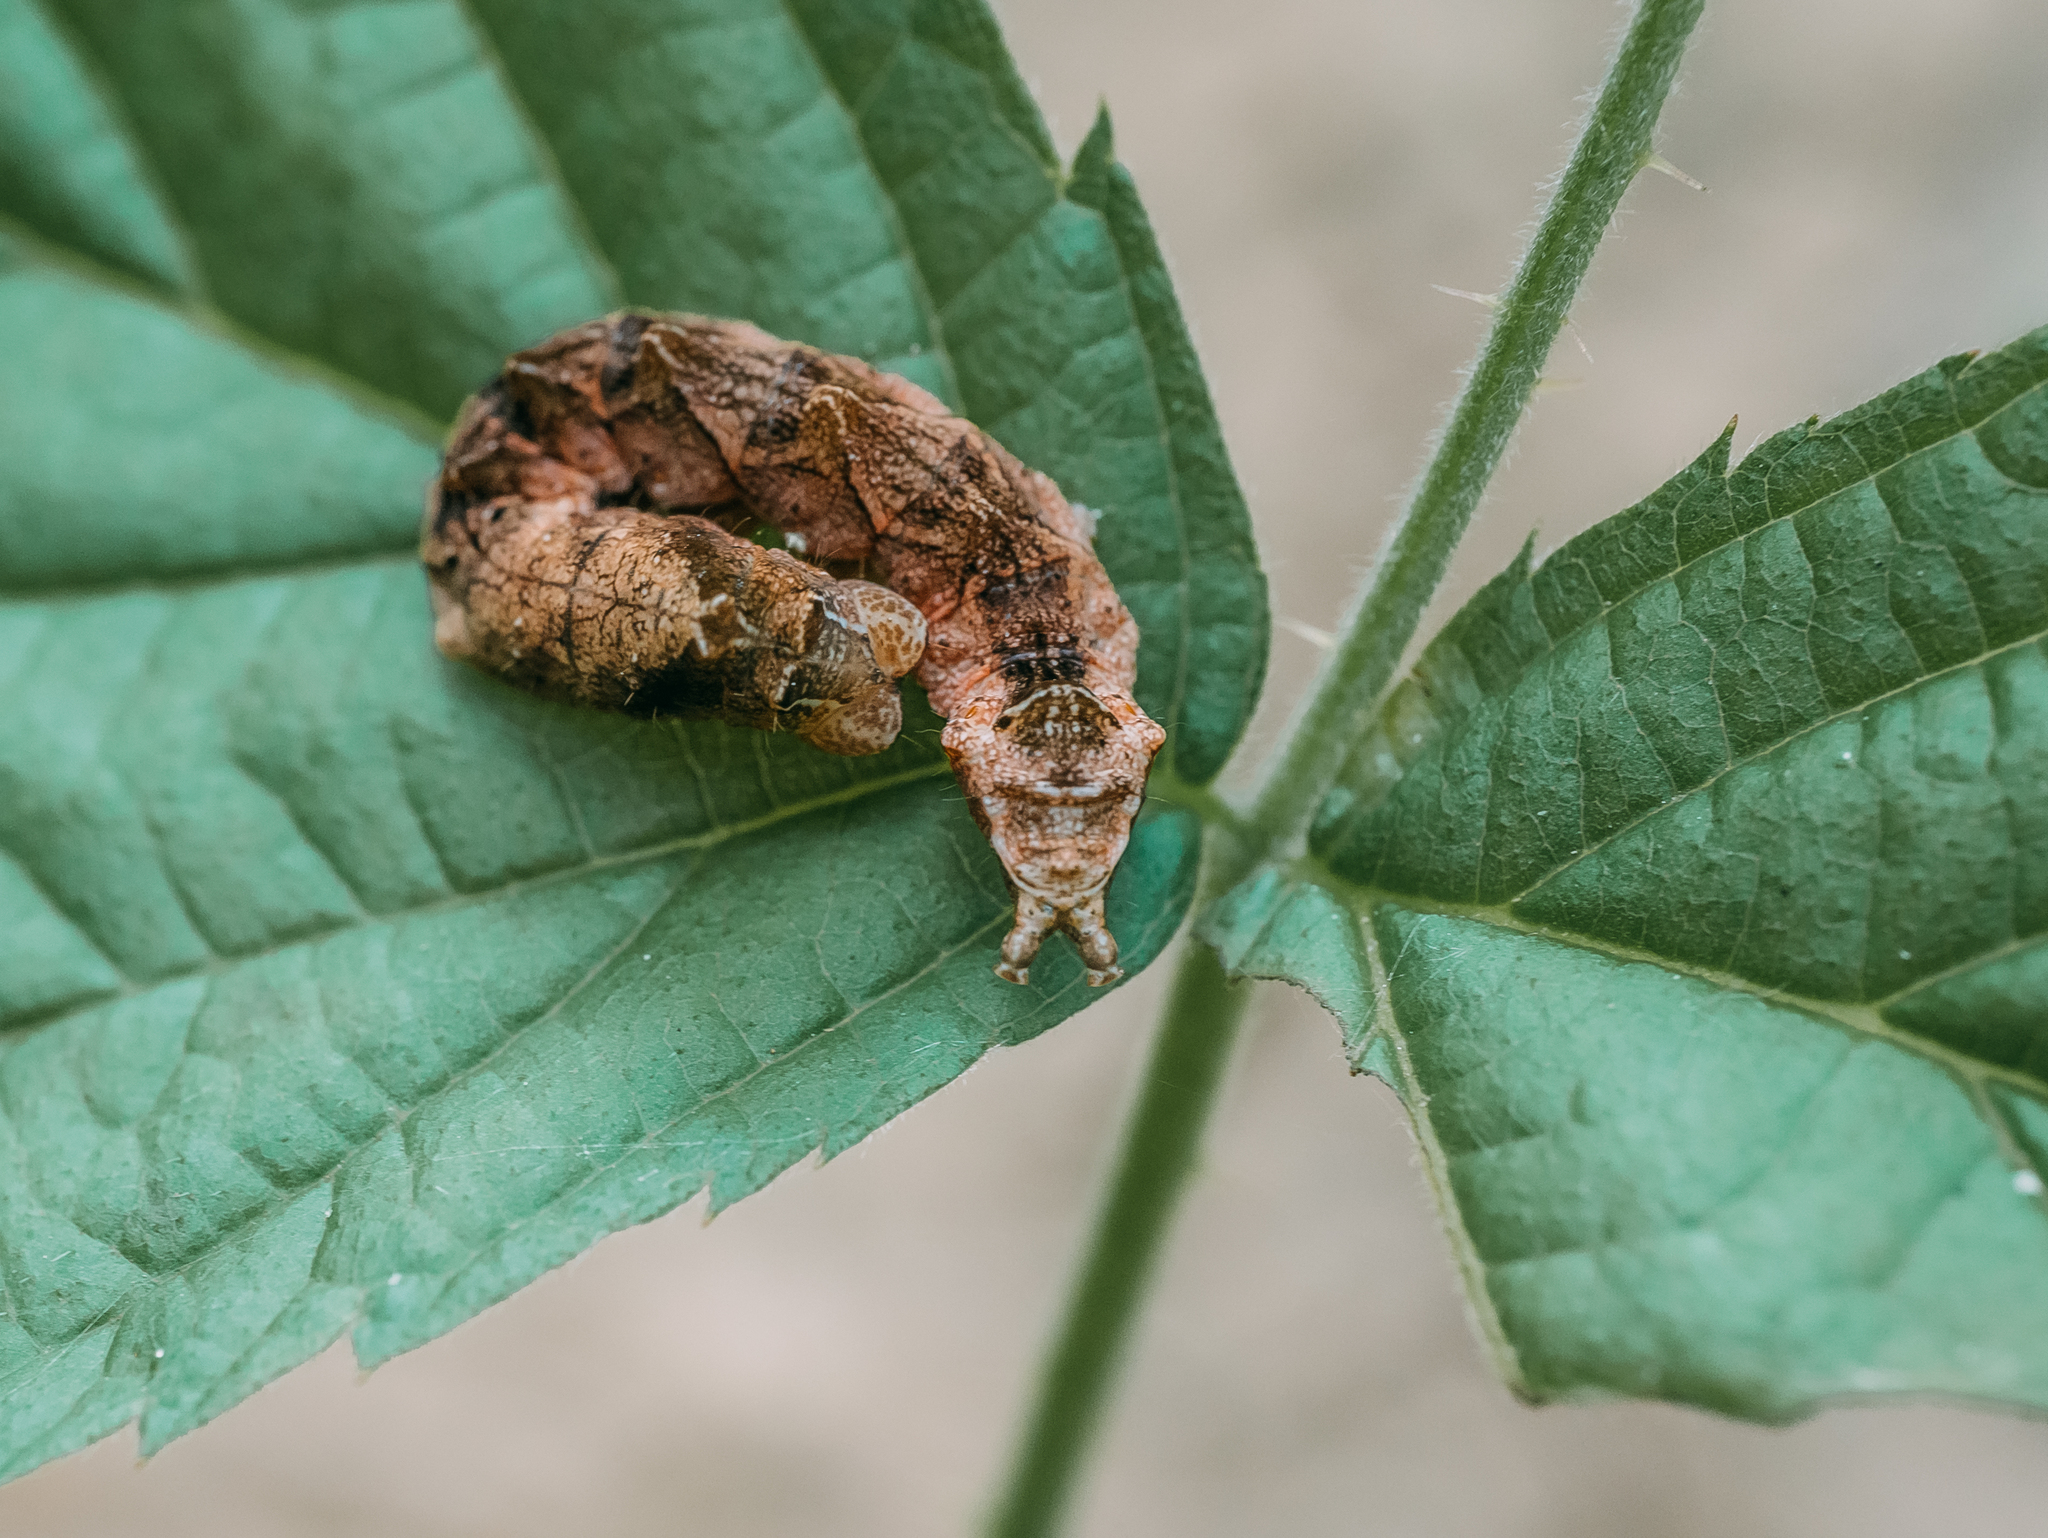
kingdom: Animalia
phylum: Arthropoda
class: Insecta
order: Lepidoptera
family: Drepanidae
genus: Thyatira
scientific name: Thyatira batis
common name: Peach blossom
